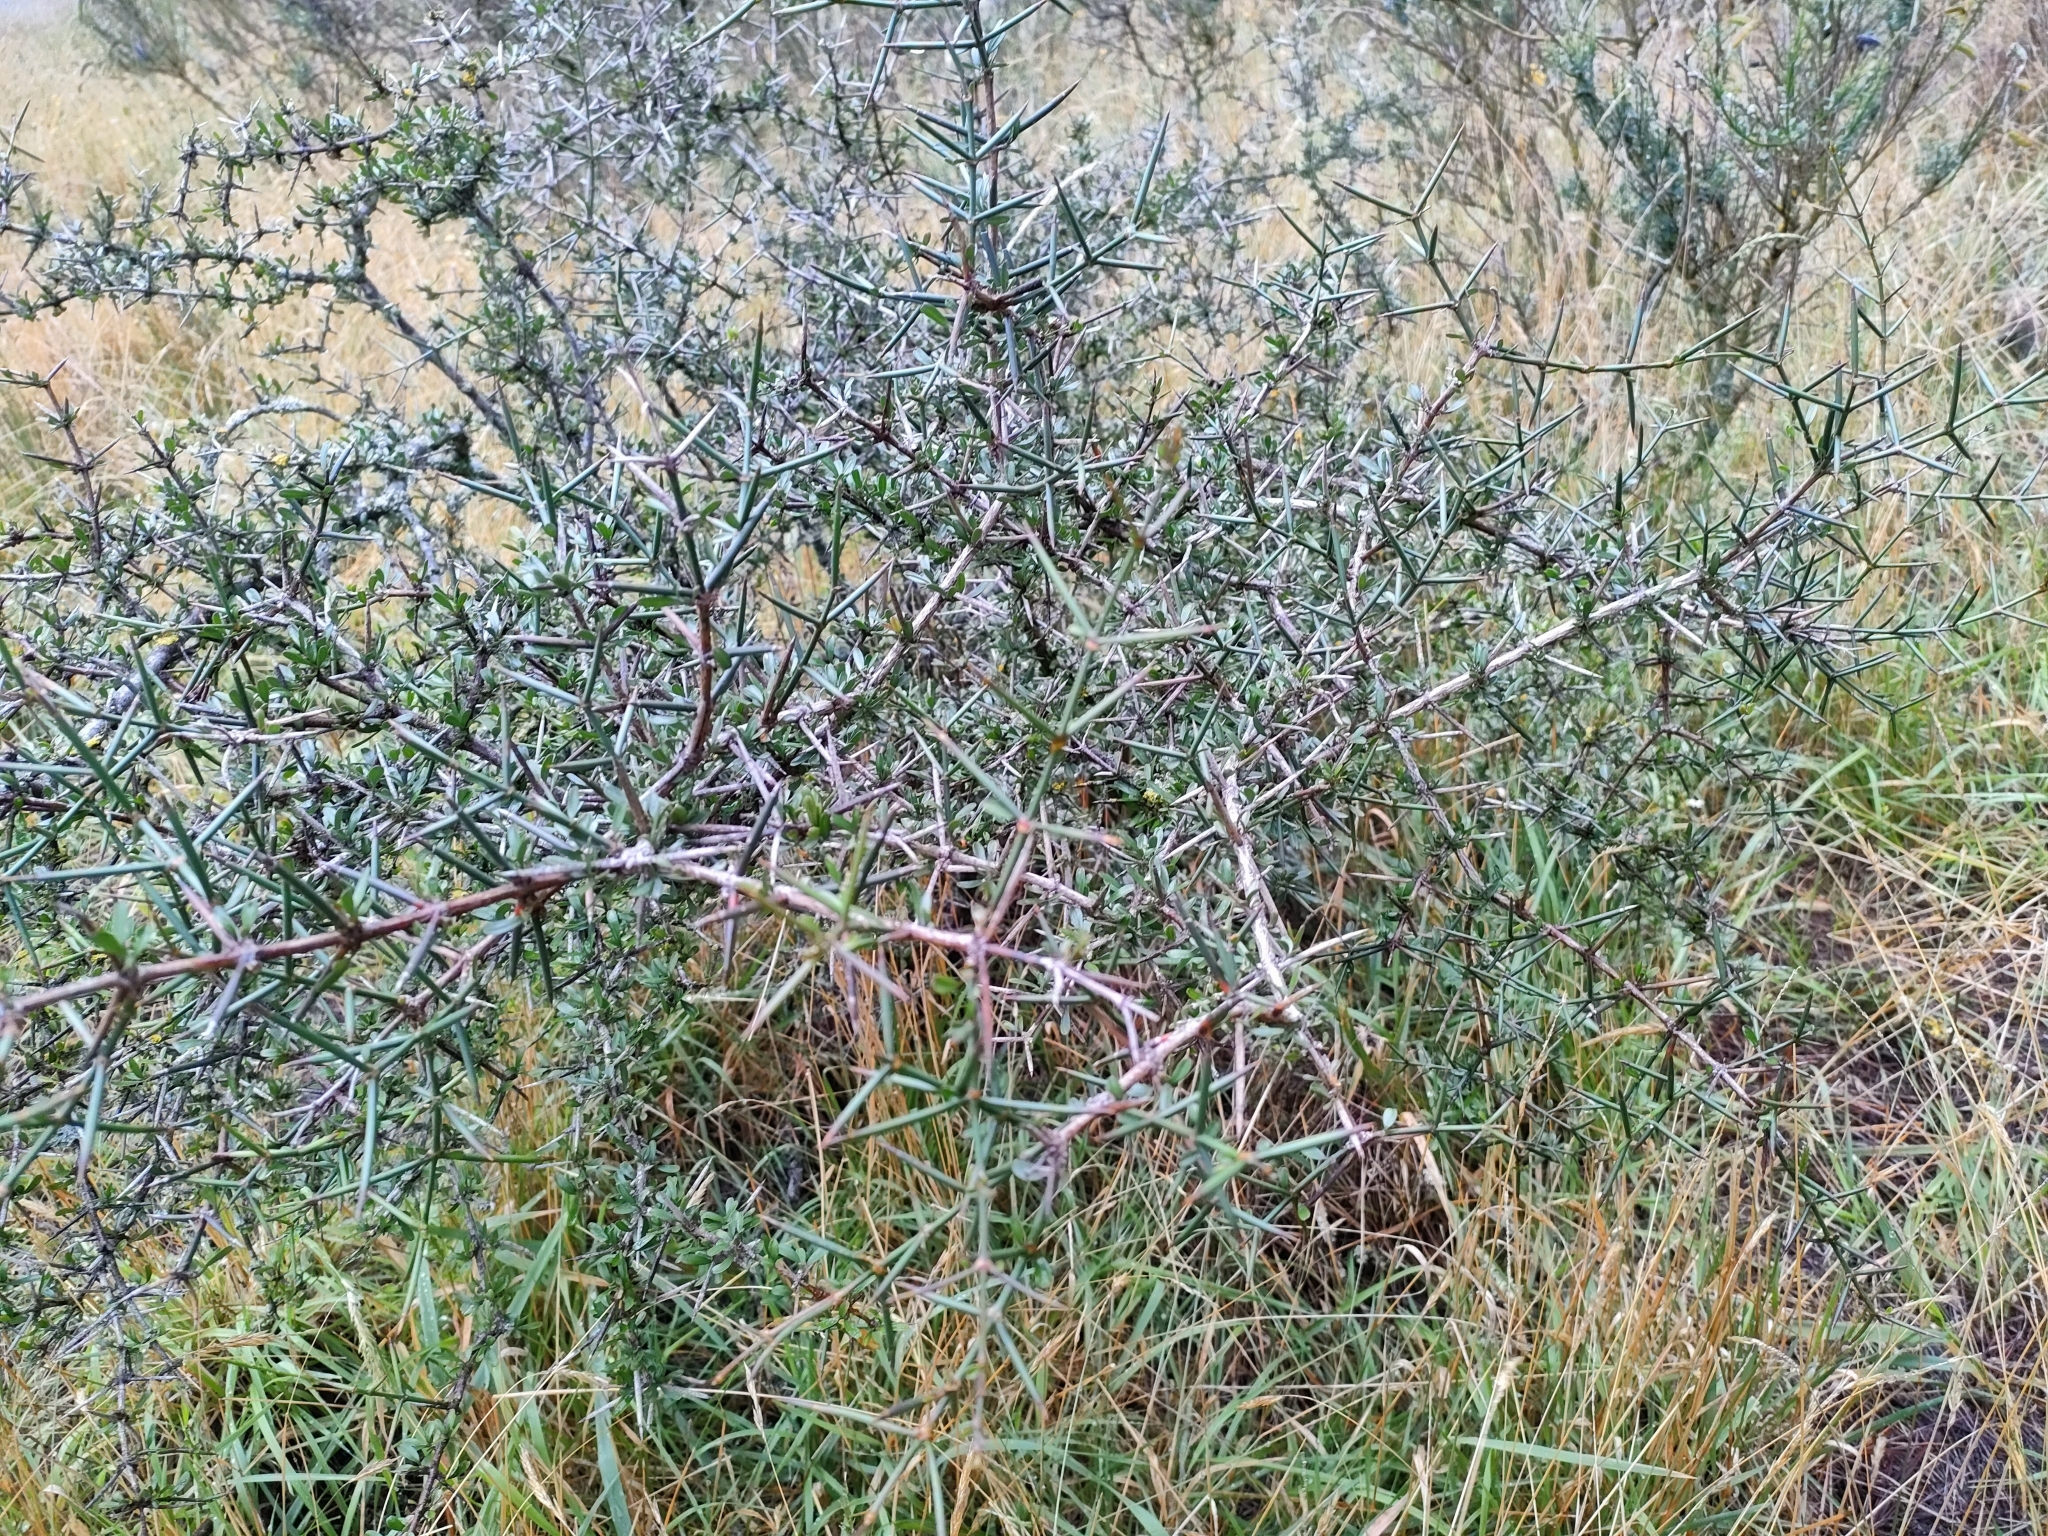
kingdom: Plantae
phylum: Tracheophyta
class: Magnoliopsida
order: Rosales
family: Rhamnaceae
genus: Discaria
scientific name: Discaria toumatou
